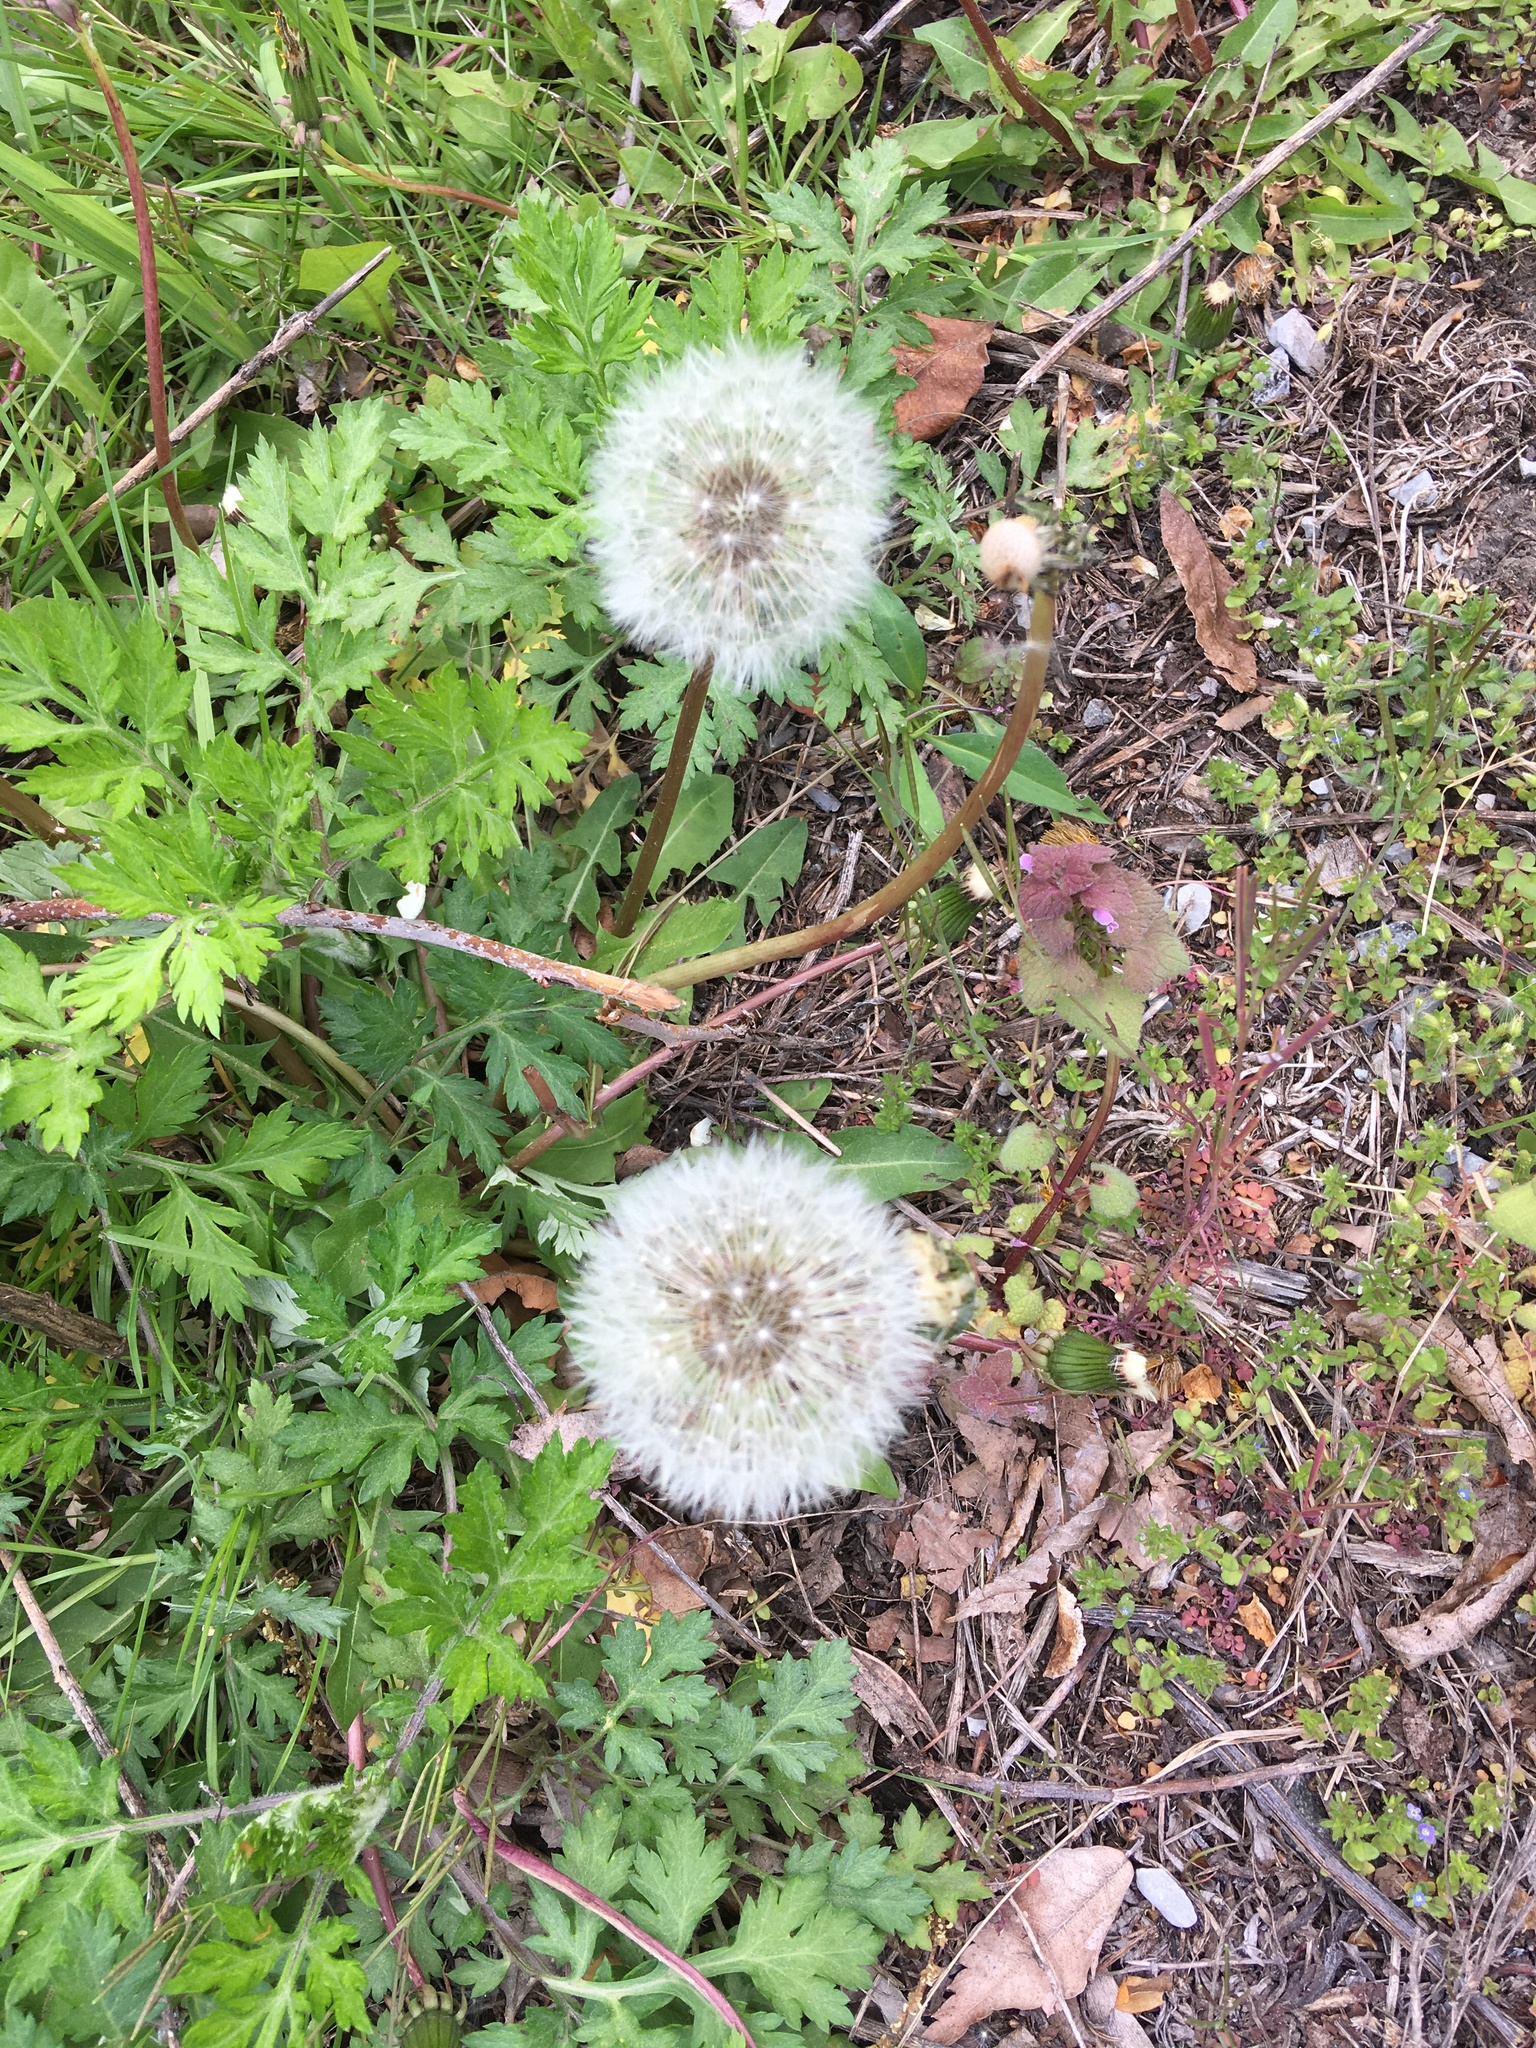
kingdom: Plantae
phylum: Tracheophyta
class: Magnoliopsida
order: Asterales
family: Asteraceae
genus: Taraxacum
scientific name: Taraxacum officinale
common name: Common dandelion
